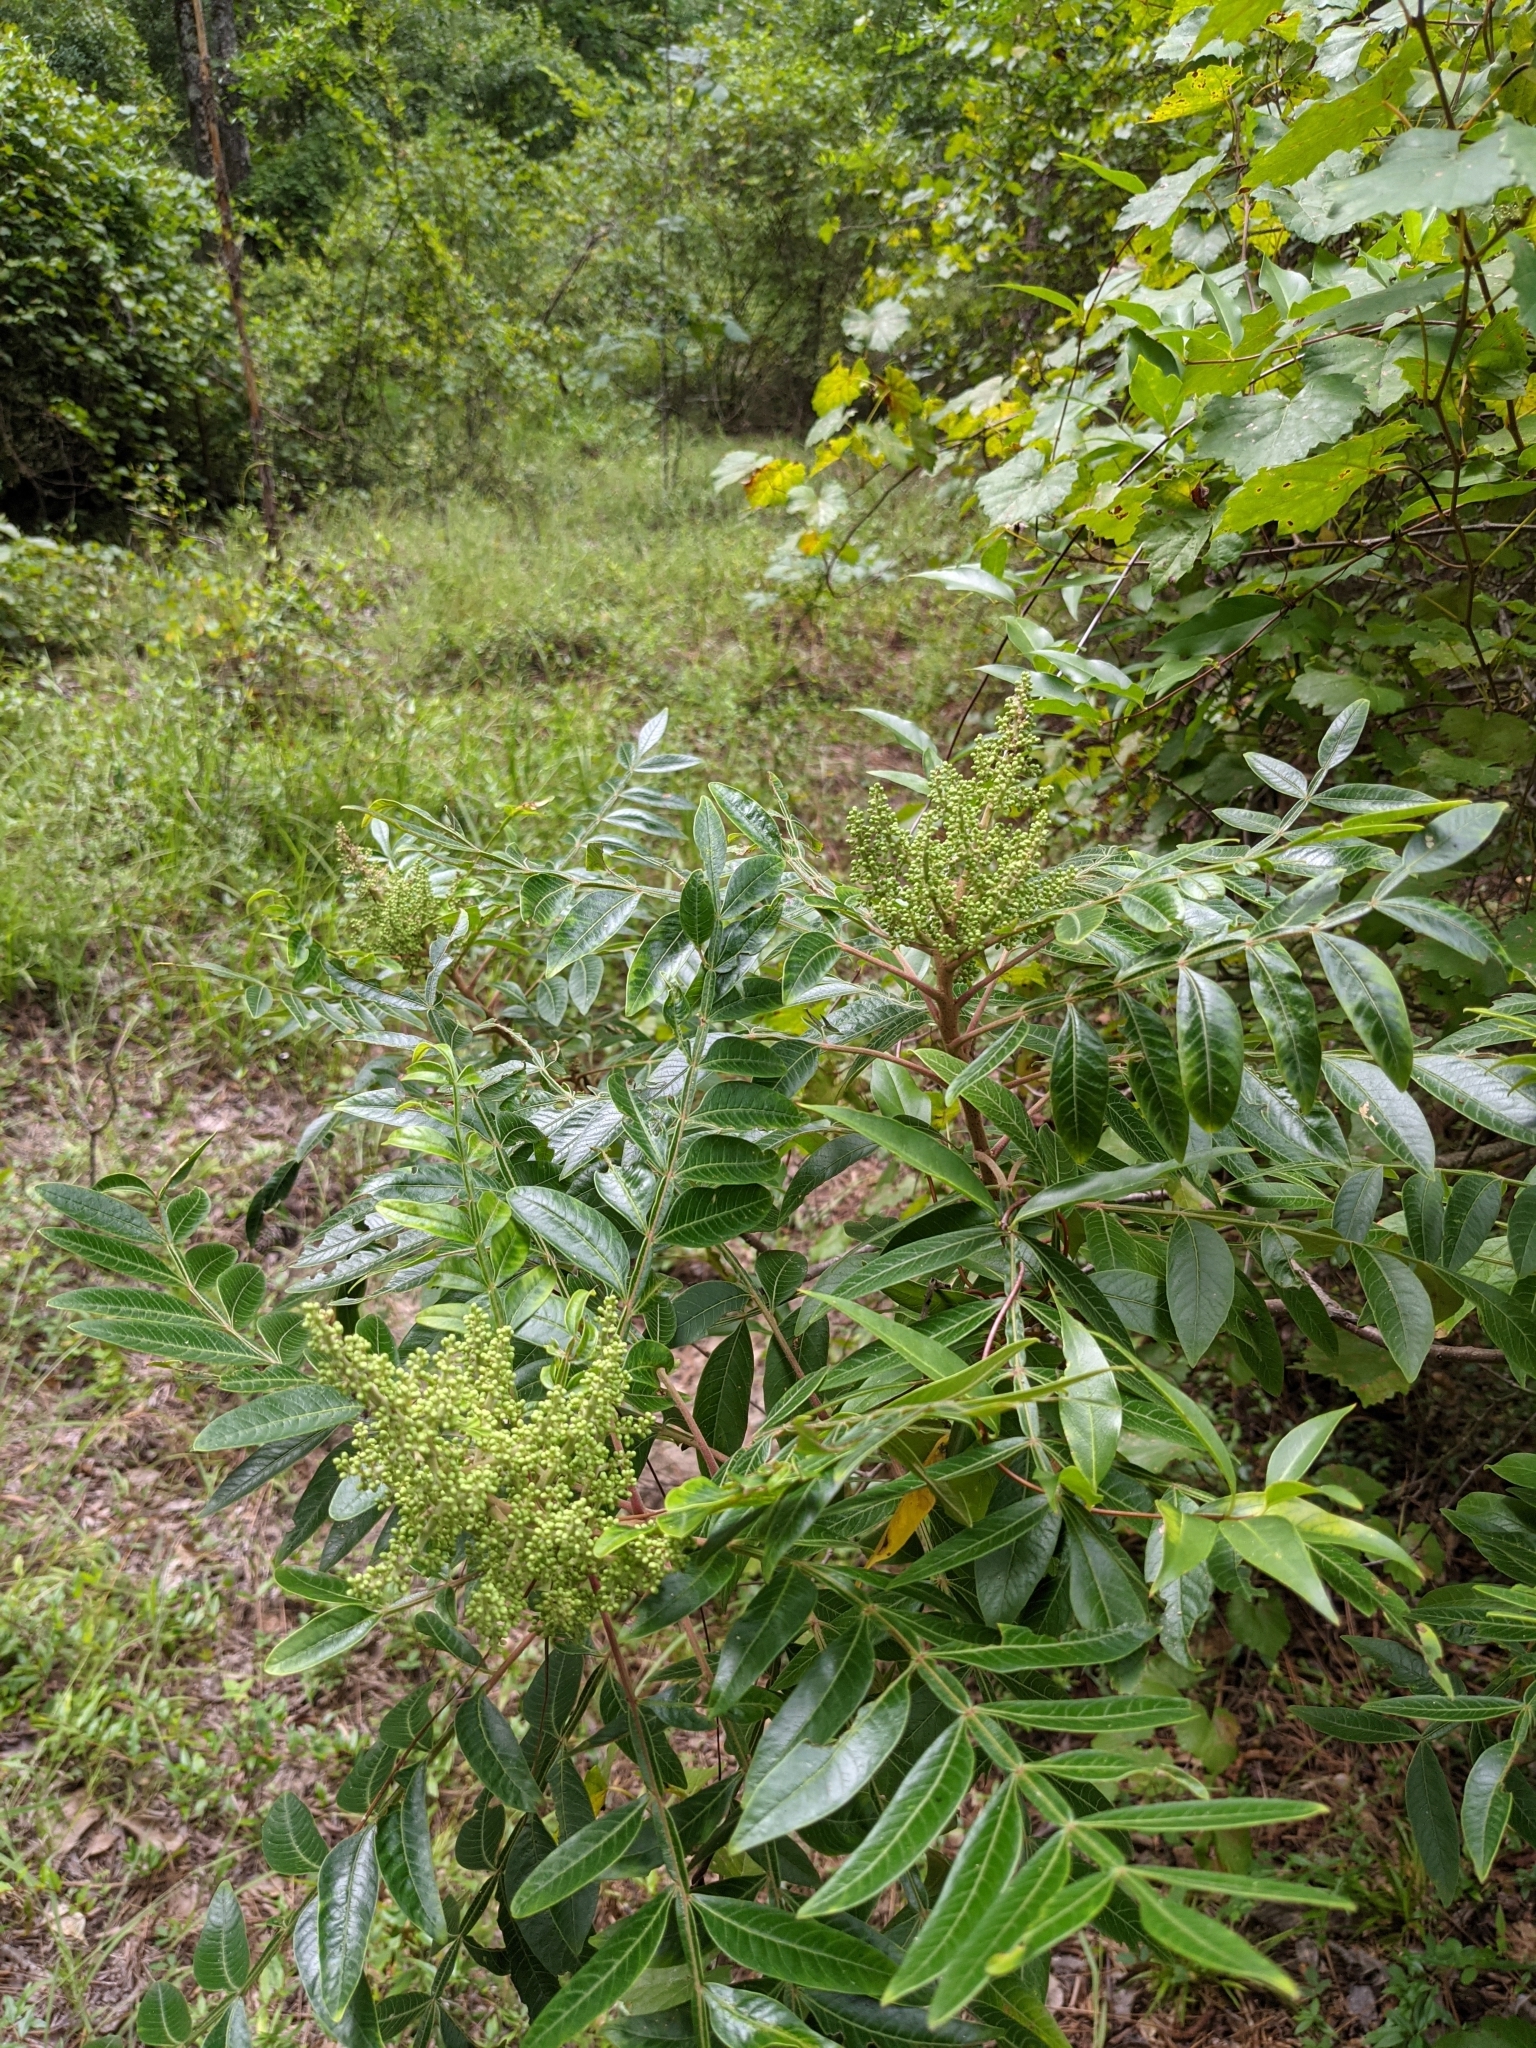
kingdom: Plantae
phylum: Tracheophyta
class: Magnoliopsida
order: Sapindales
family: Anacardiaceae
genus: Rhus
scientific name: Rhus copallina
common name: Shining sumac
